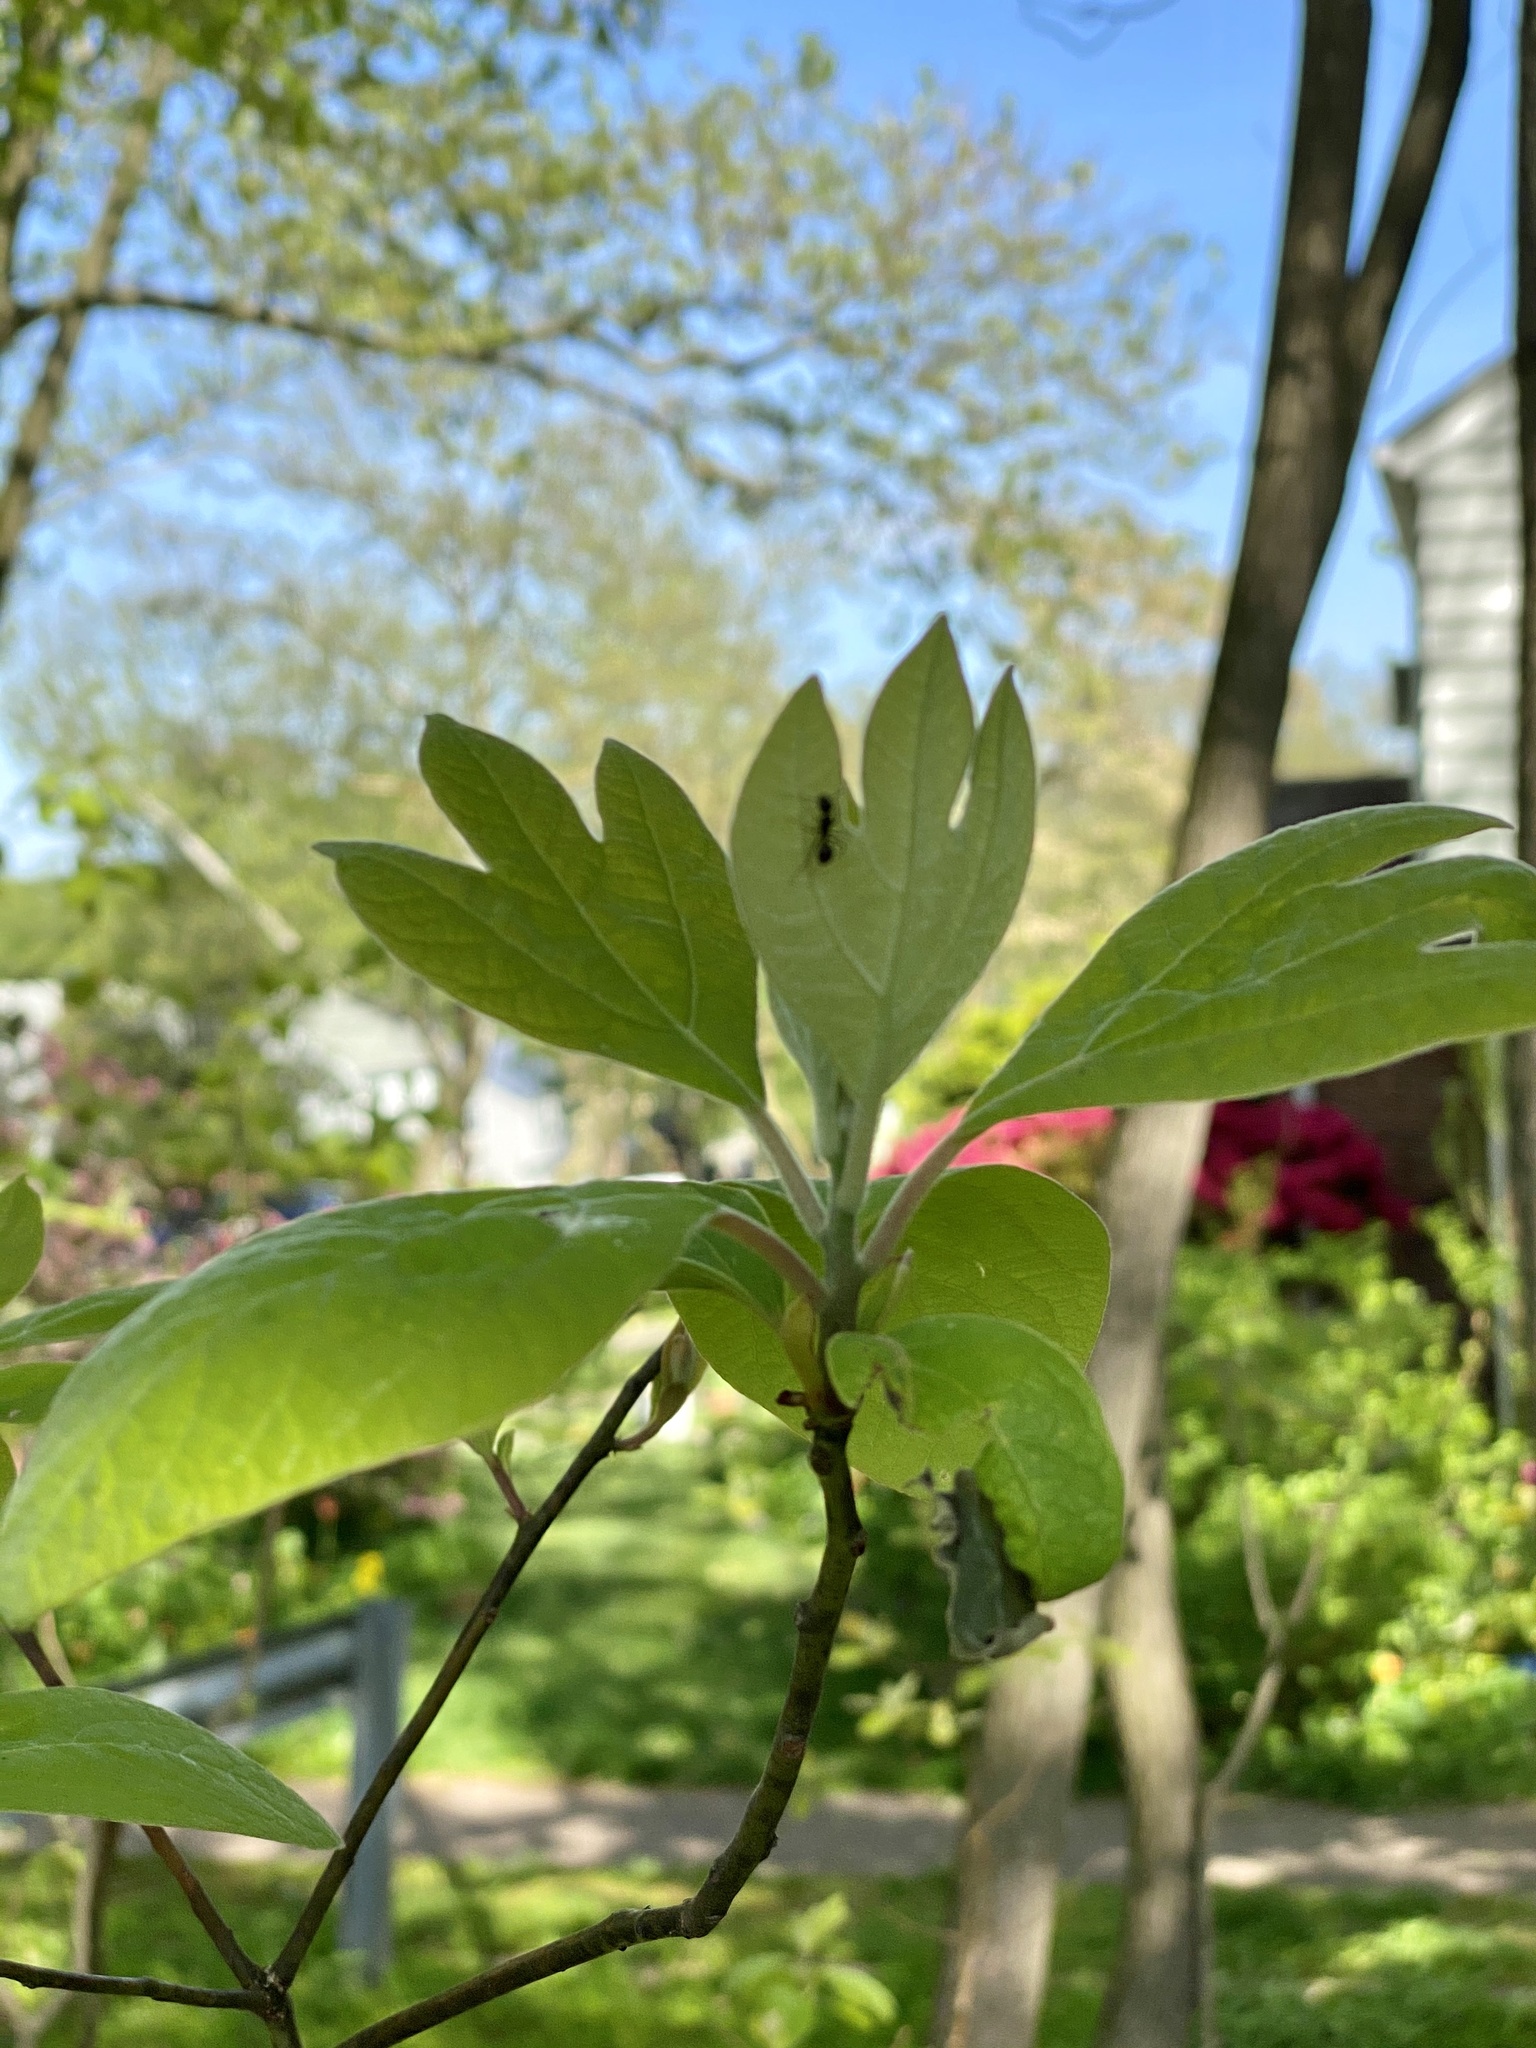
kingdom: Plantae
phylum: Tracheophyta
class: Magnoliopsida
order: Laurales
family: Lauraceae
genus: Sassafras
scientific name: Sassafras albidum
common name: Sassafras
